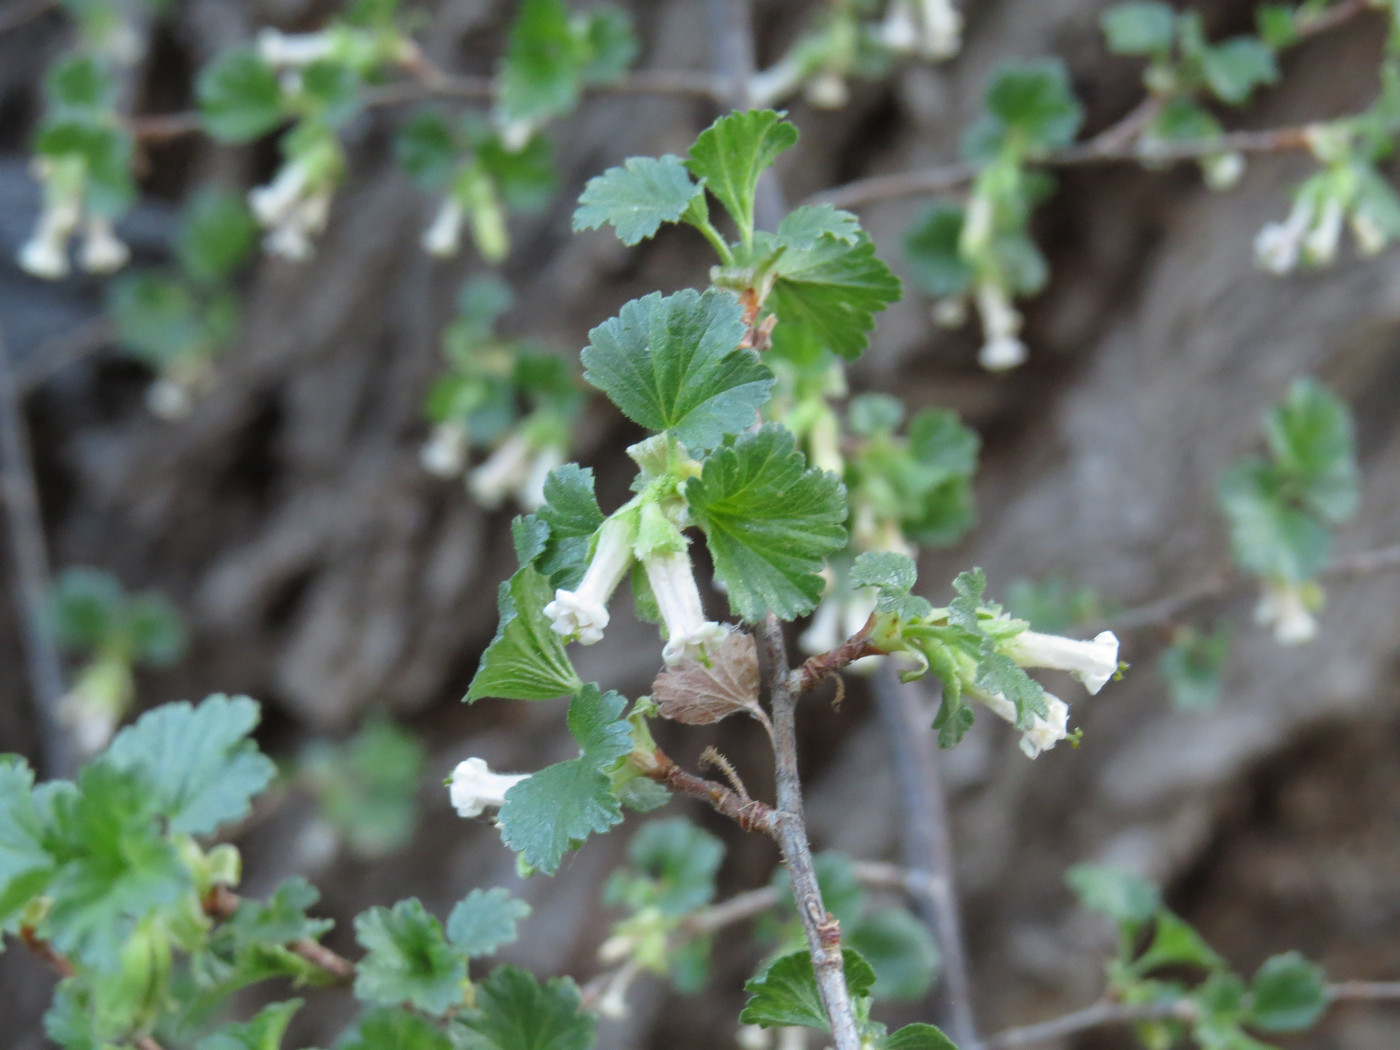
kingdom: Plantae
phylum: Tracheophyta
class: Magnoliopsida
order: Saxifragales
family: Grossulariaceae
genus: Ribes
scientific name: Ribes cereum
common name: Wax currant
